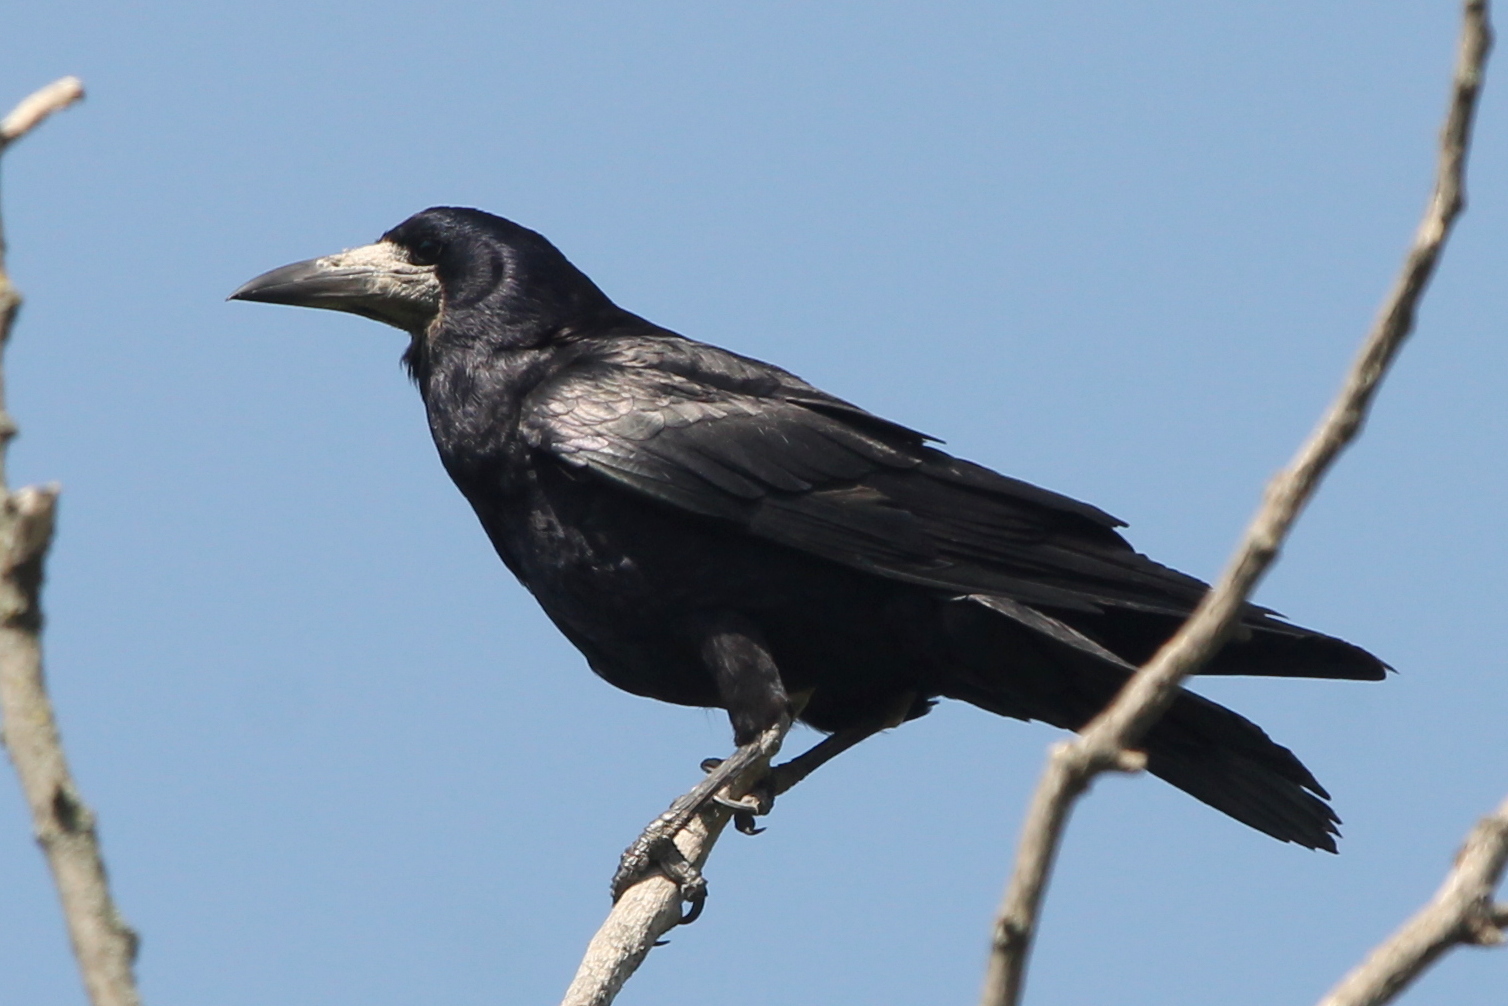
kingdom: Animalia
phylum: Chordata
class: Aves
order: Passeriformes
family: Corvidae
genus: Corvus
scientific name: Corvus frugilegus
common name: Rook
